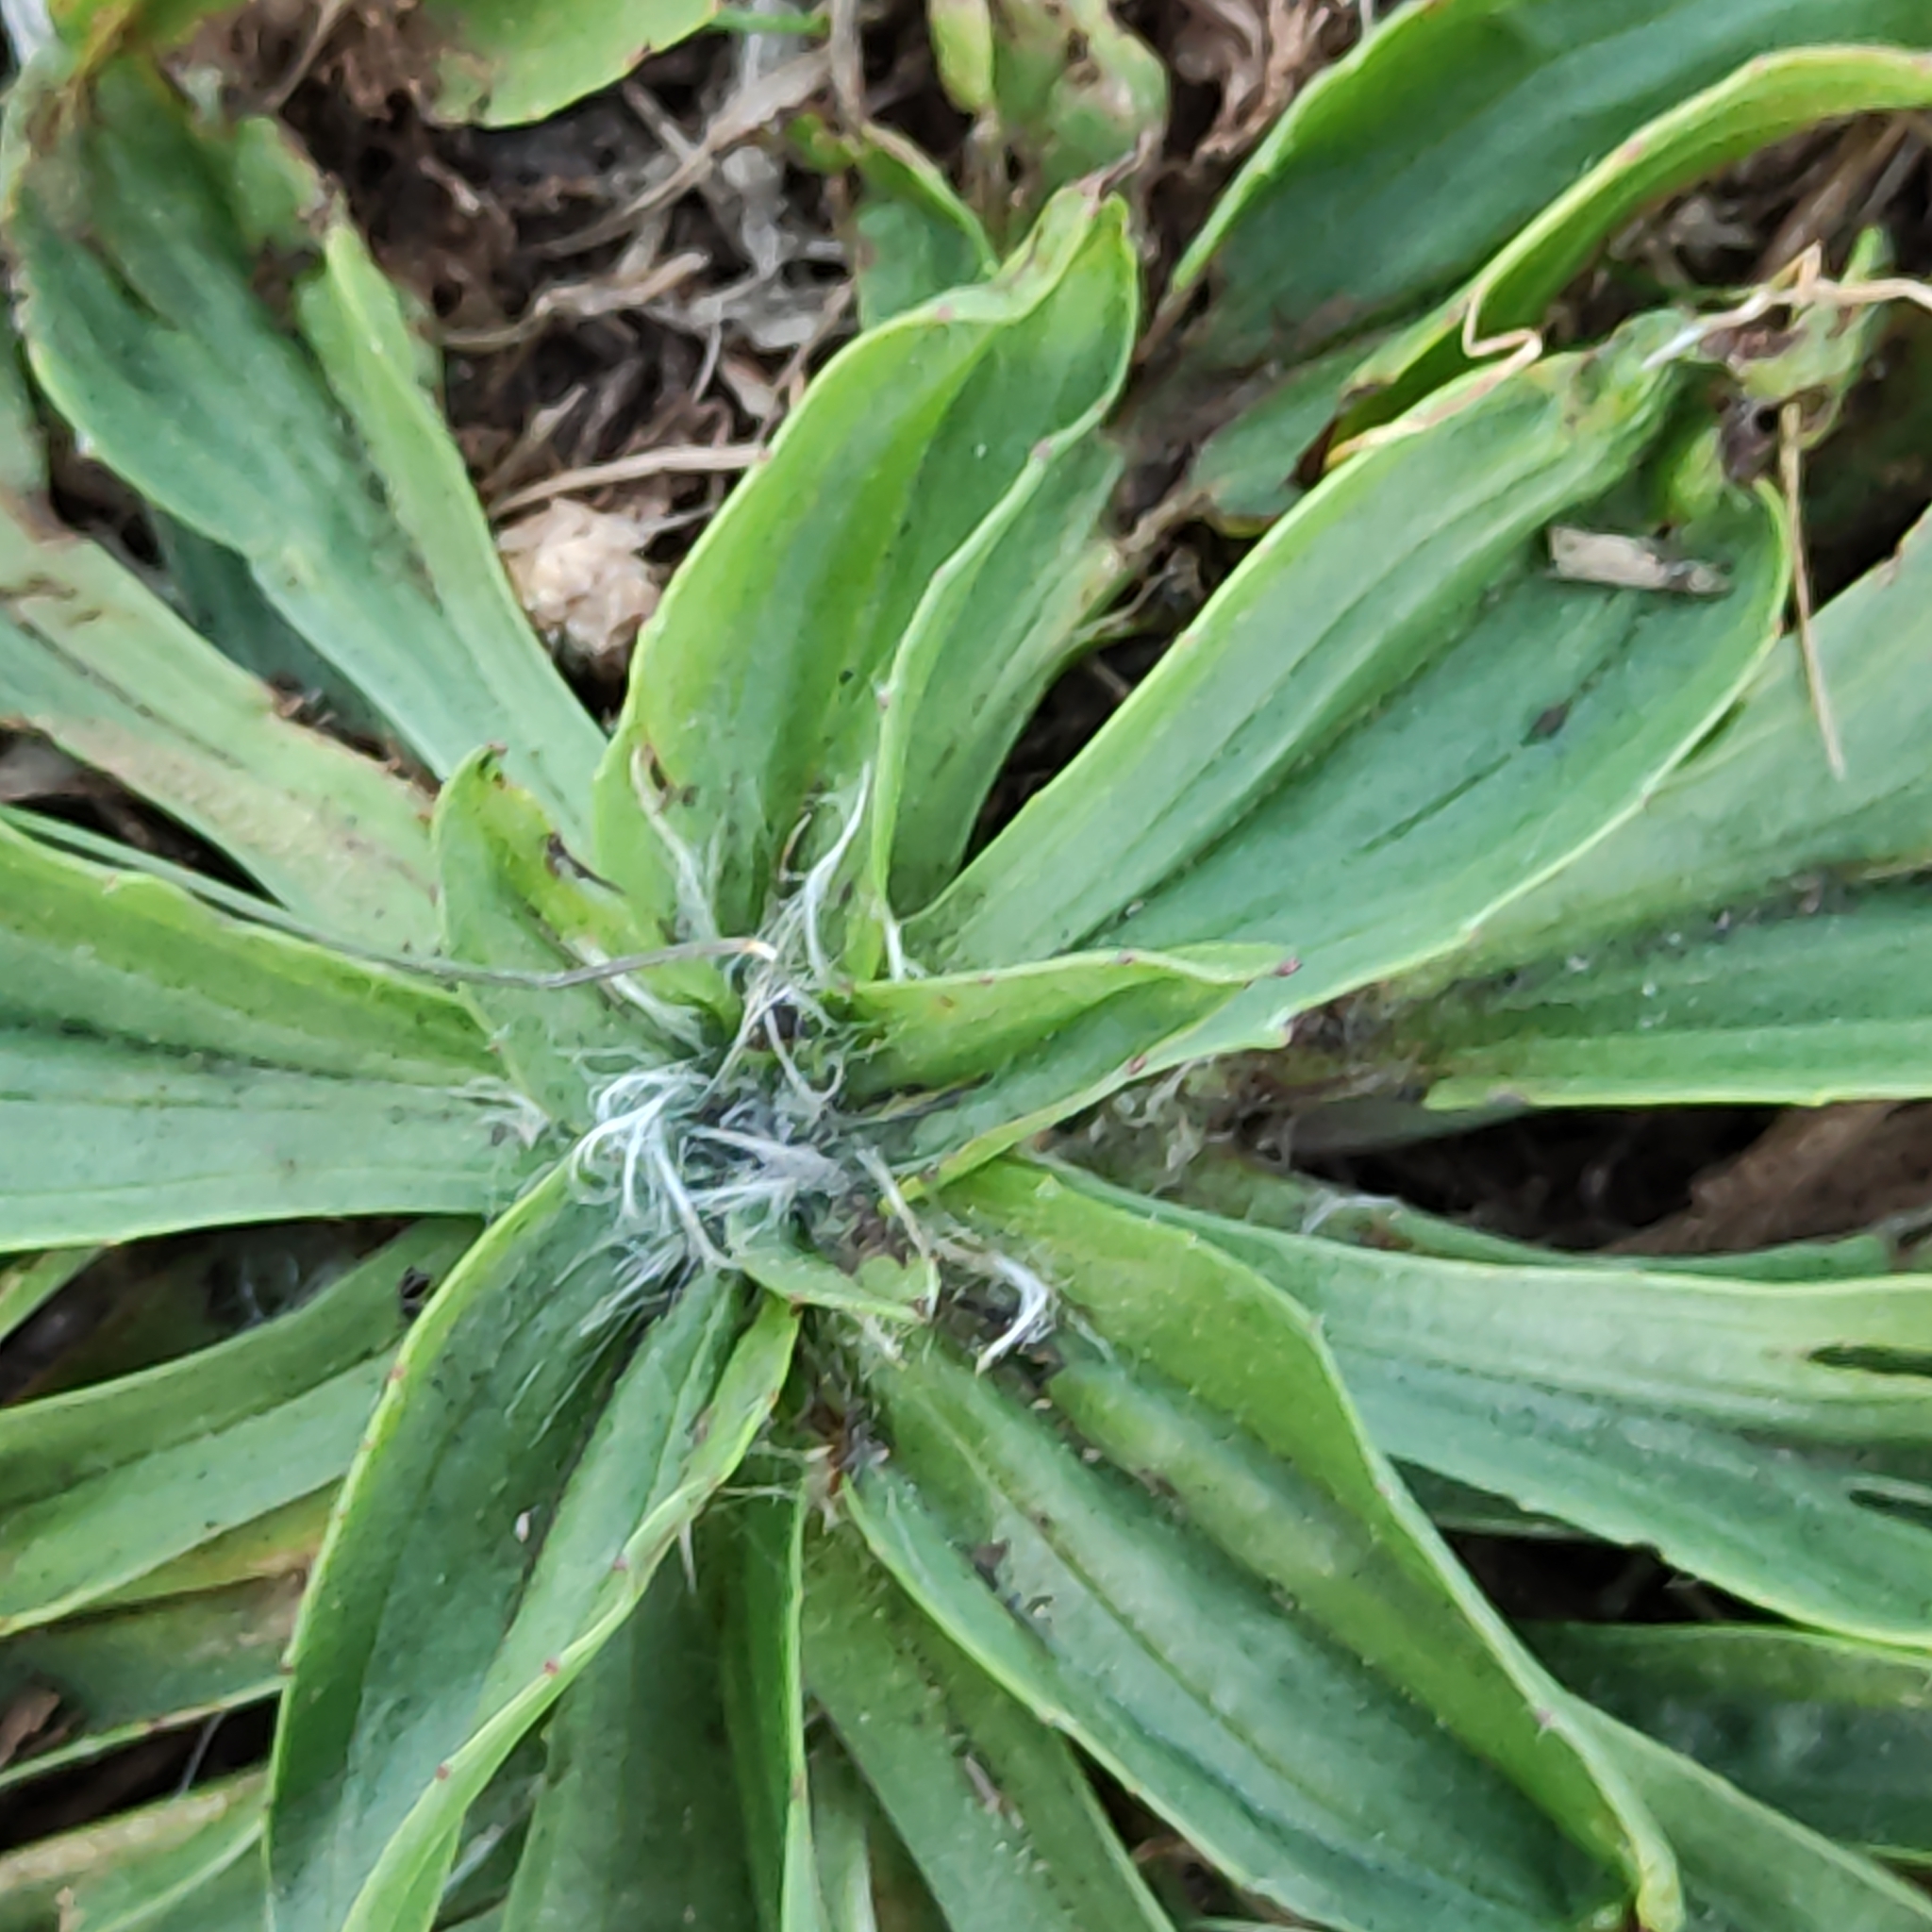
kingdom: Plantae
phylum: Tracheophyta
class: Magnoliopsida
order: Lamiales
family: Plantaginaceae
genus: Plantago
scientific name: Plantago lanceolata
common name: Ribwort plantain
